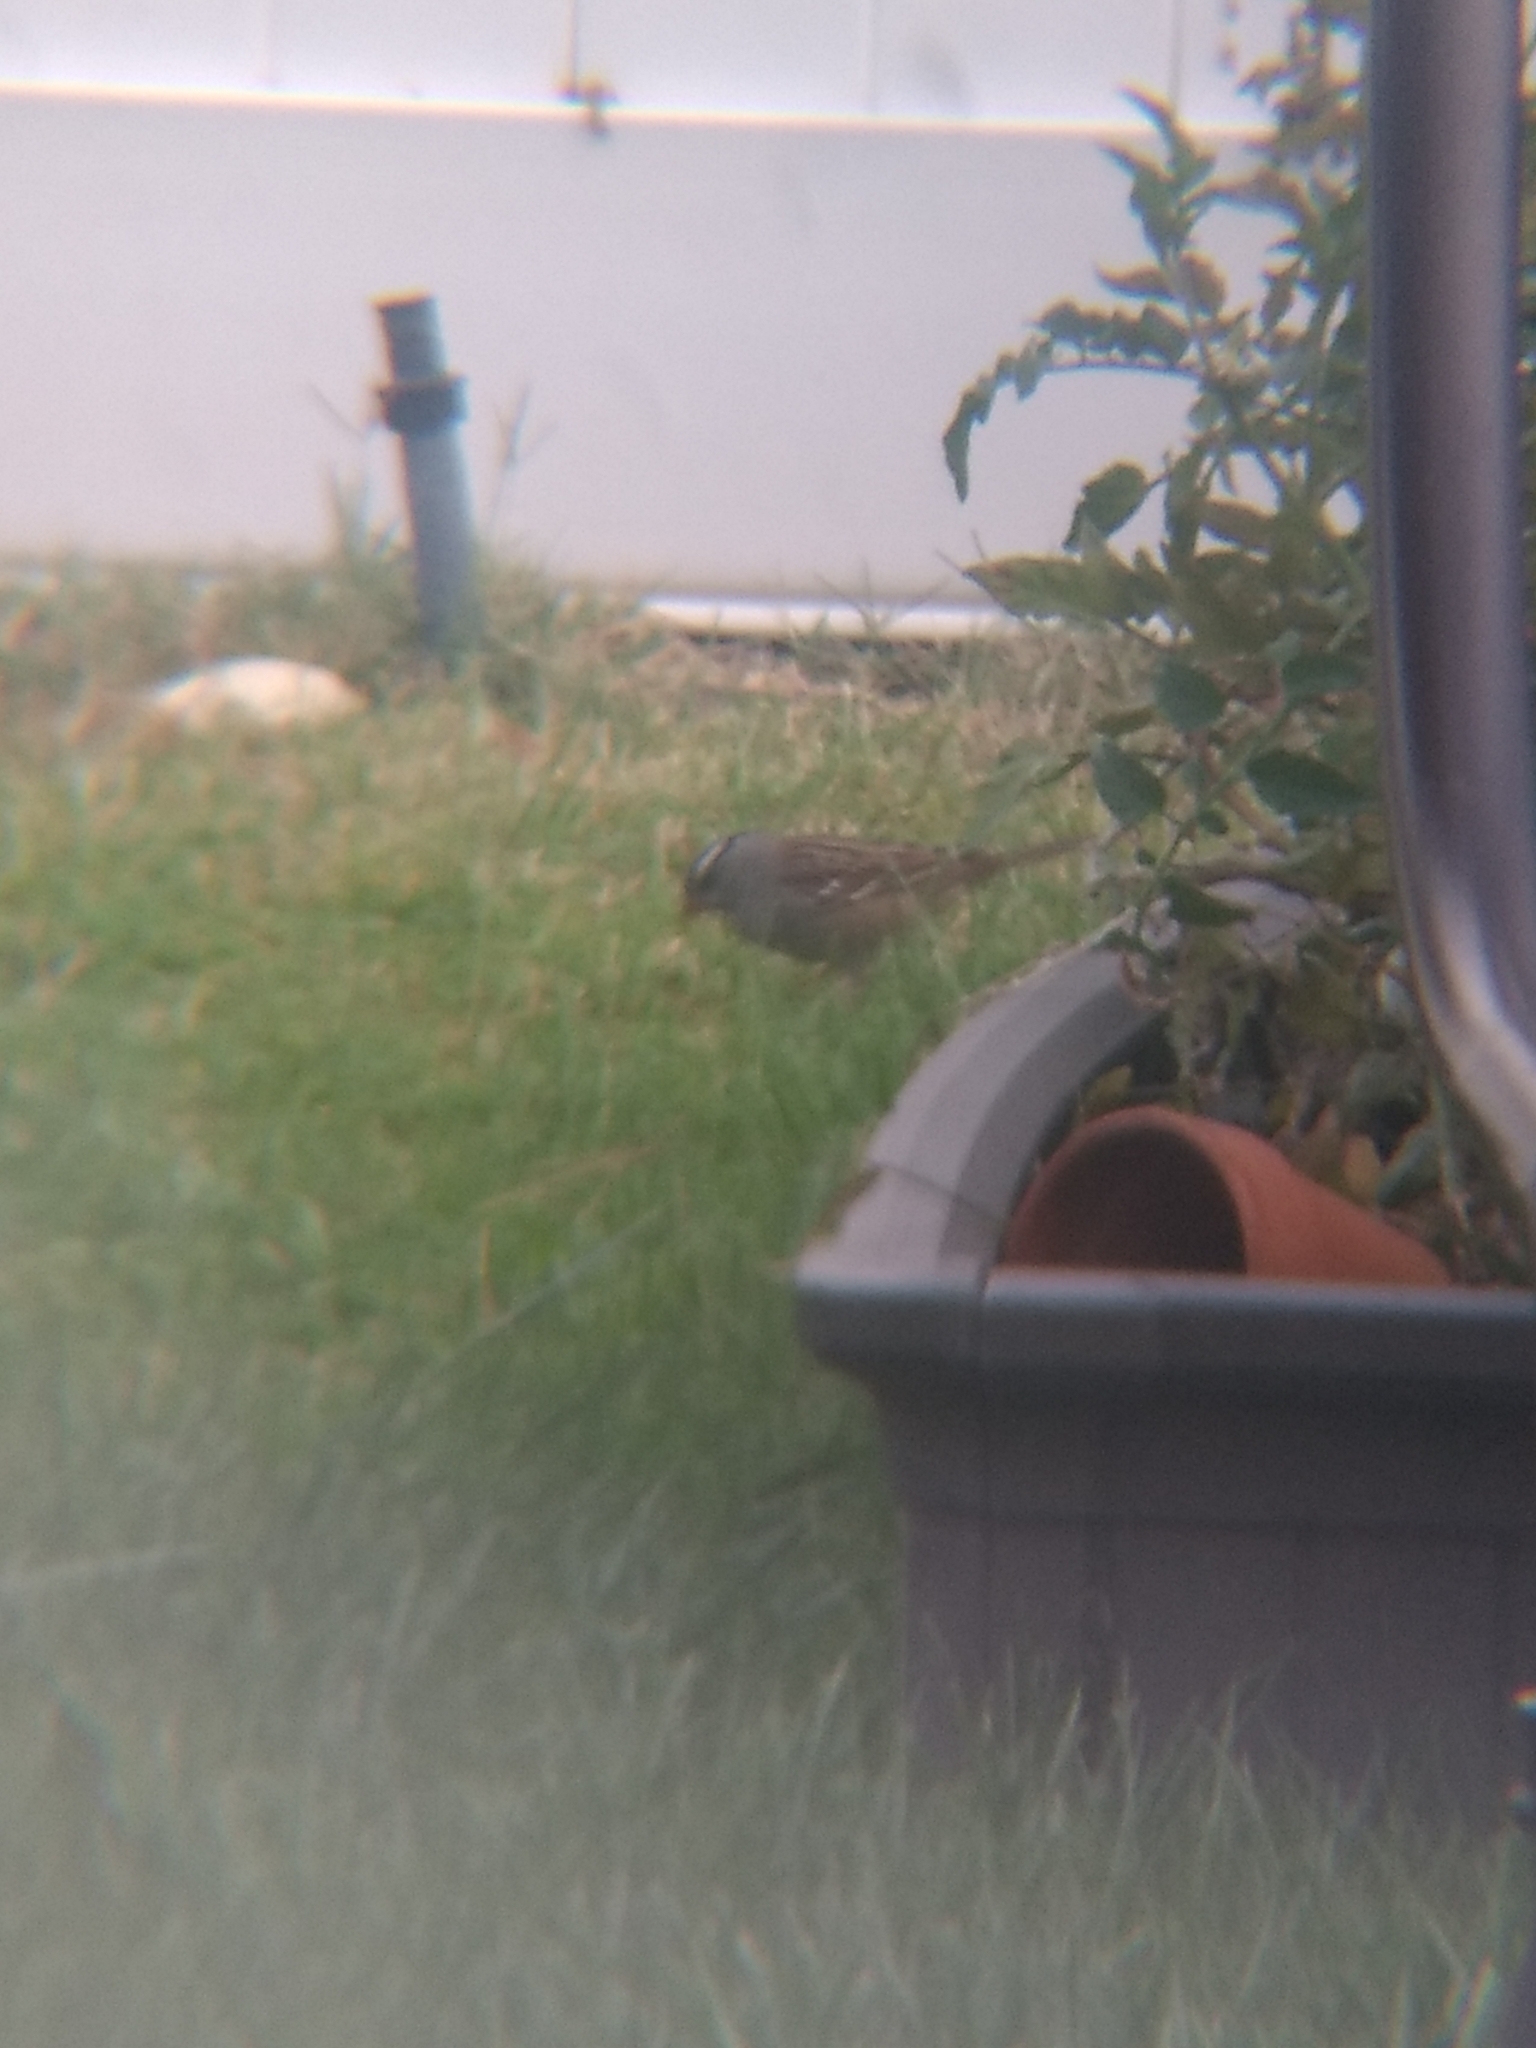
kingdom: Animalia
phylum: Chordata
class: Aves
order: Passeriformes
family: Passerellidae
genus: Zonotrichia
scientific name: Zonotrichia leucophrys
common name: White-crowned sparrow
